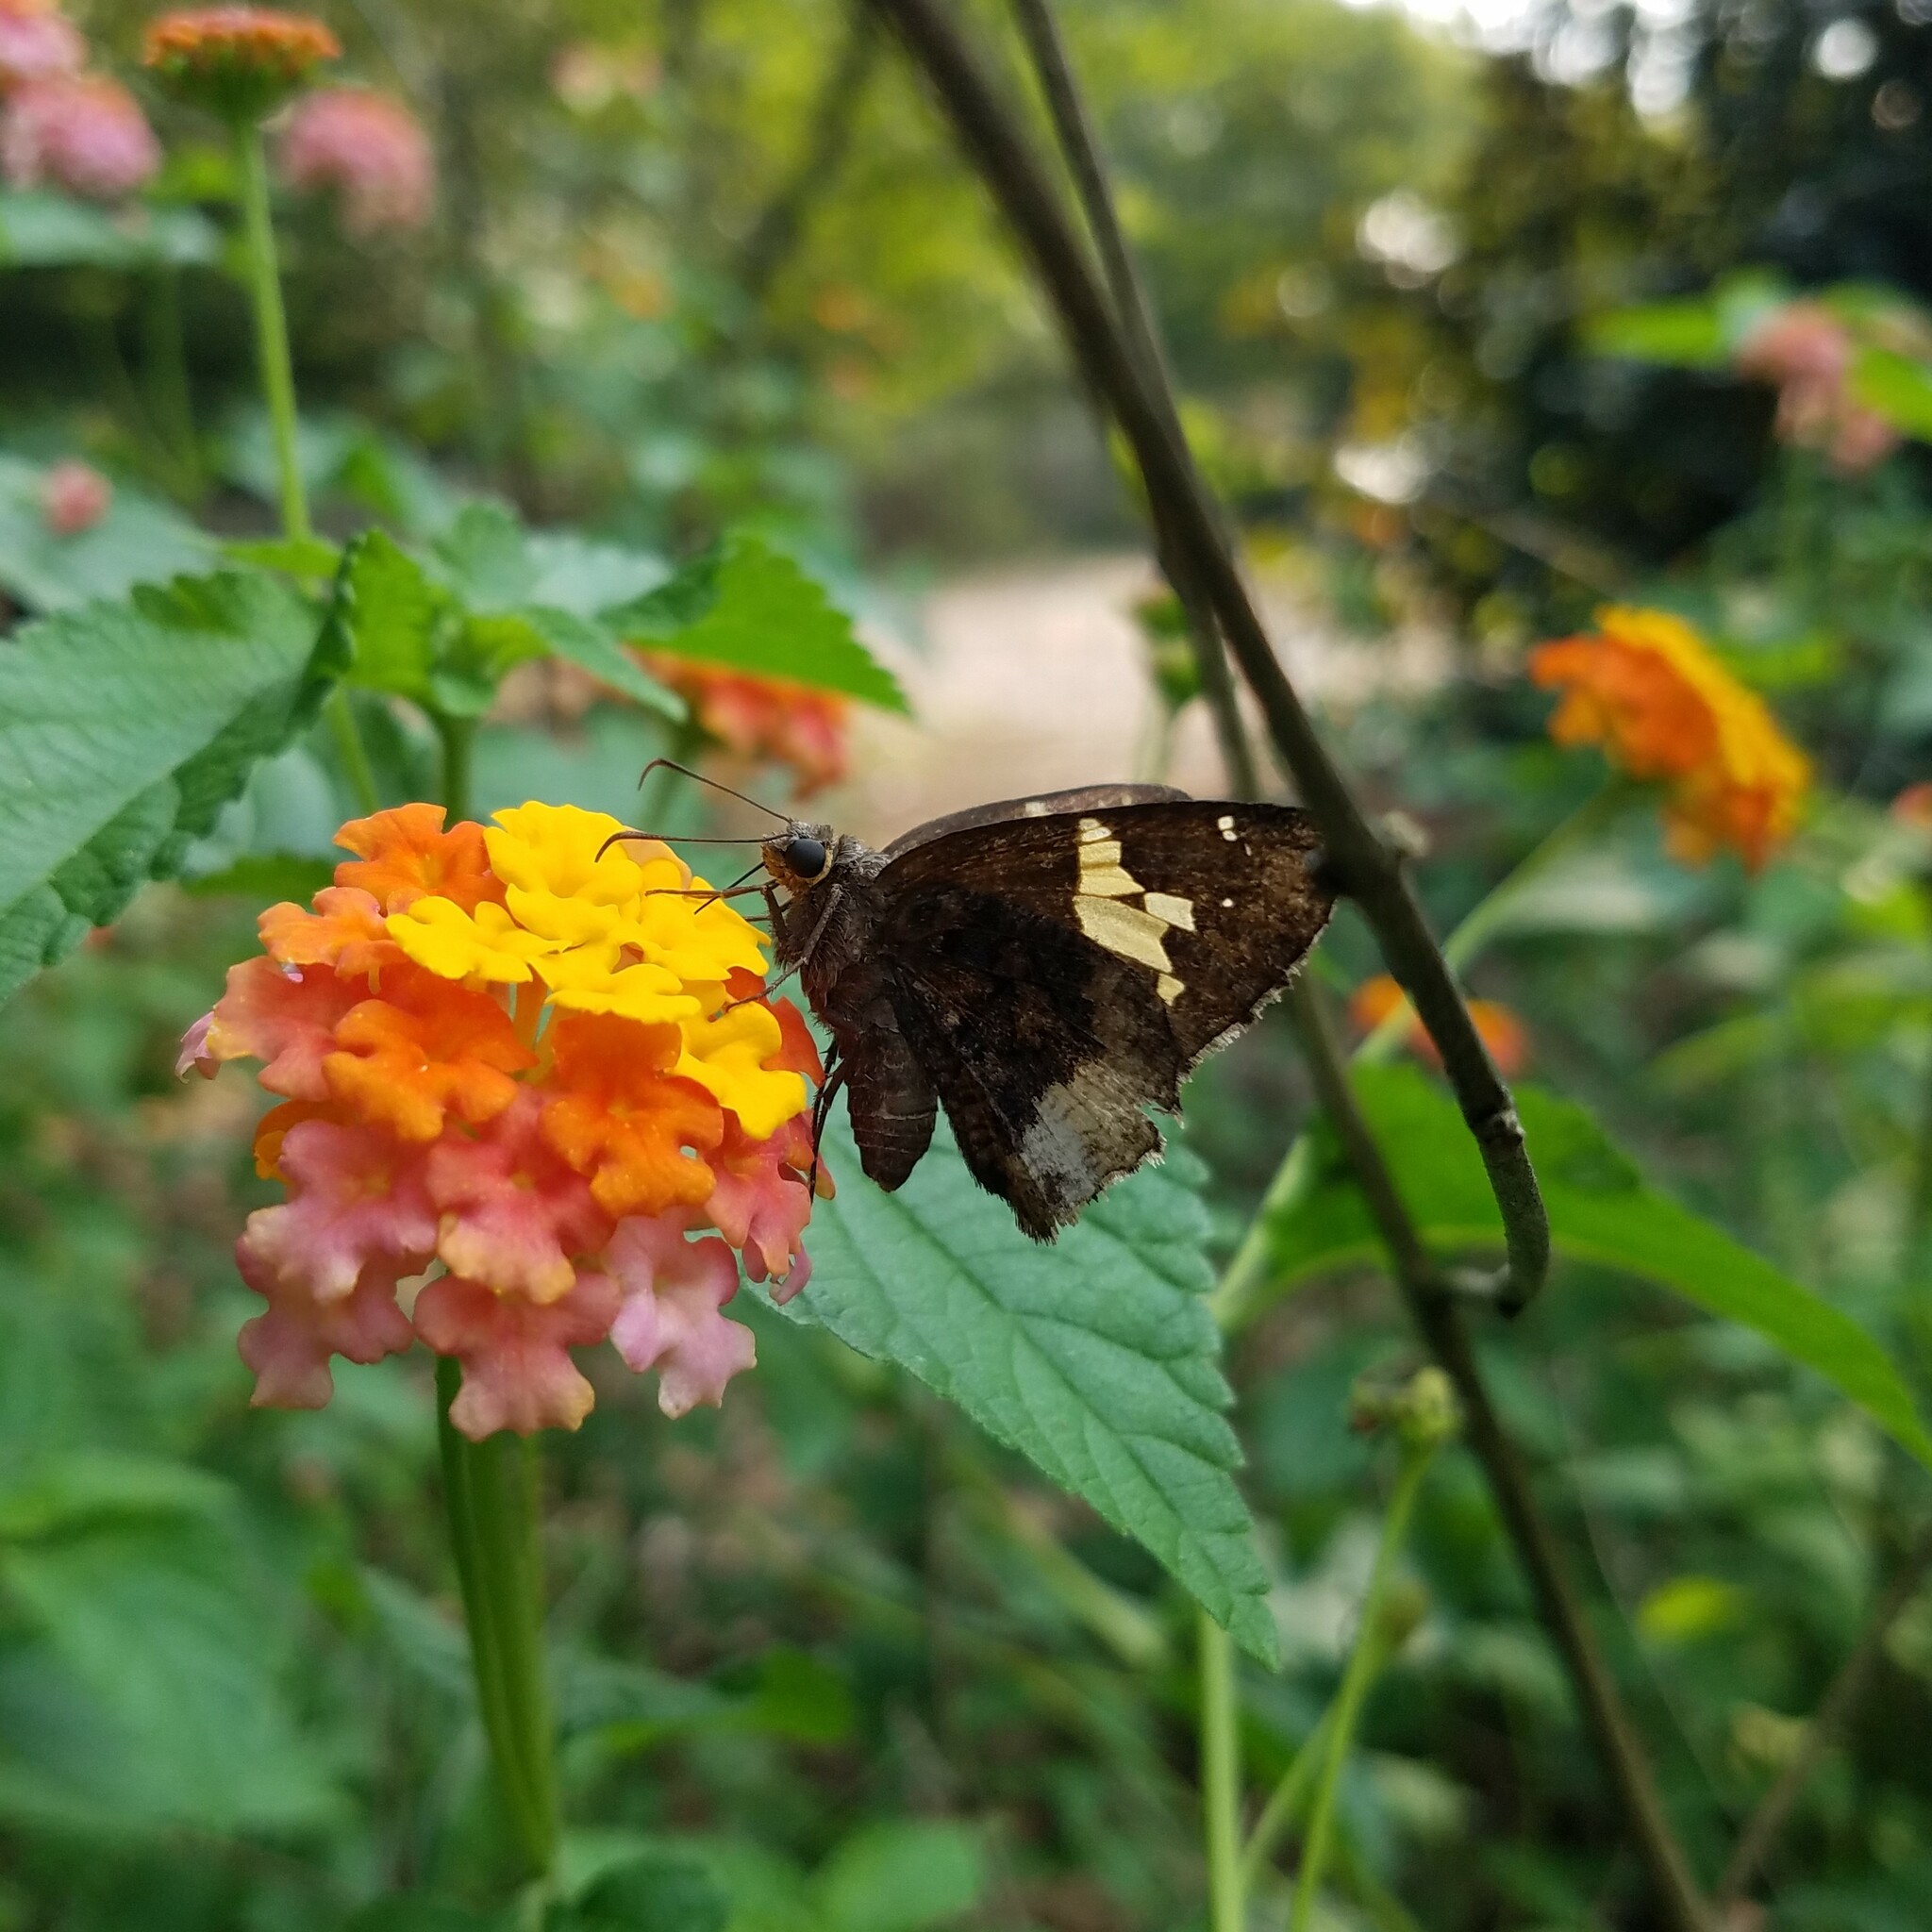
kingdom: Animalia
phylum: Arthropoda
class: Insecta
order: Lepidoptera
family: Hesperiidae
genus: Thorybes
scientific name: Thorybes lyciades
